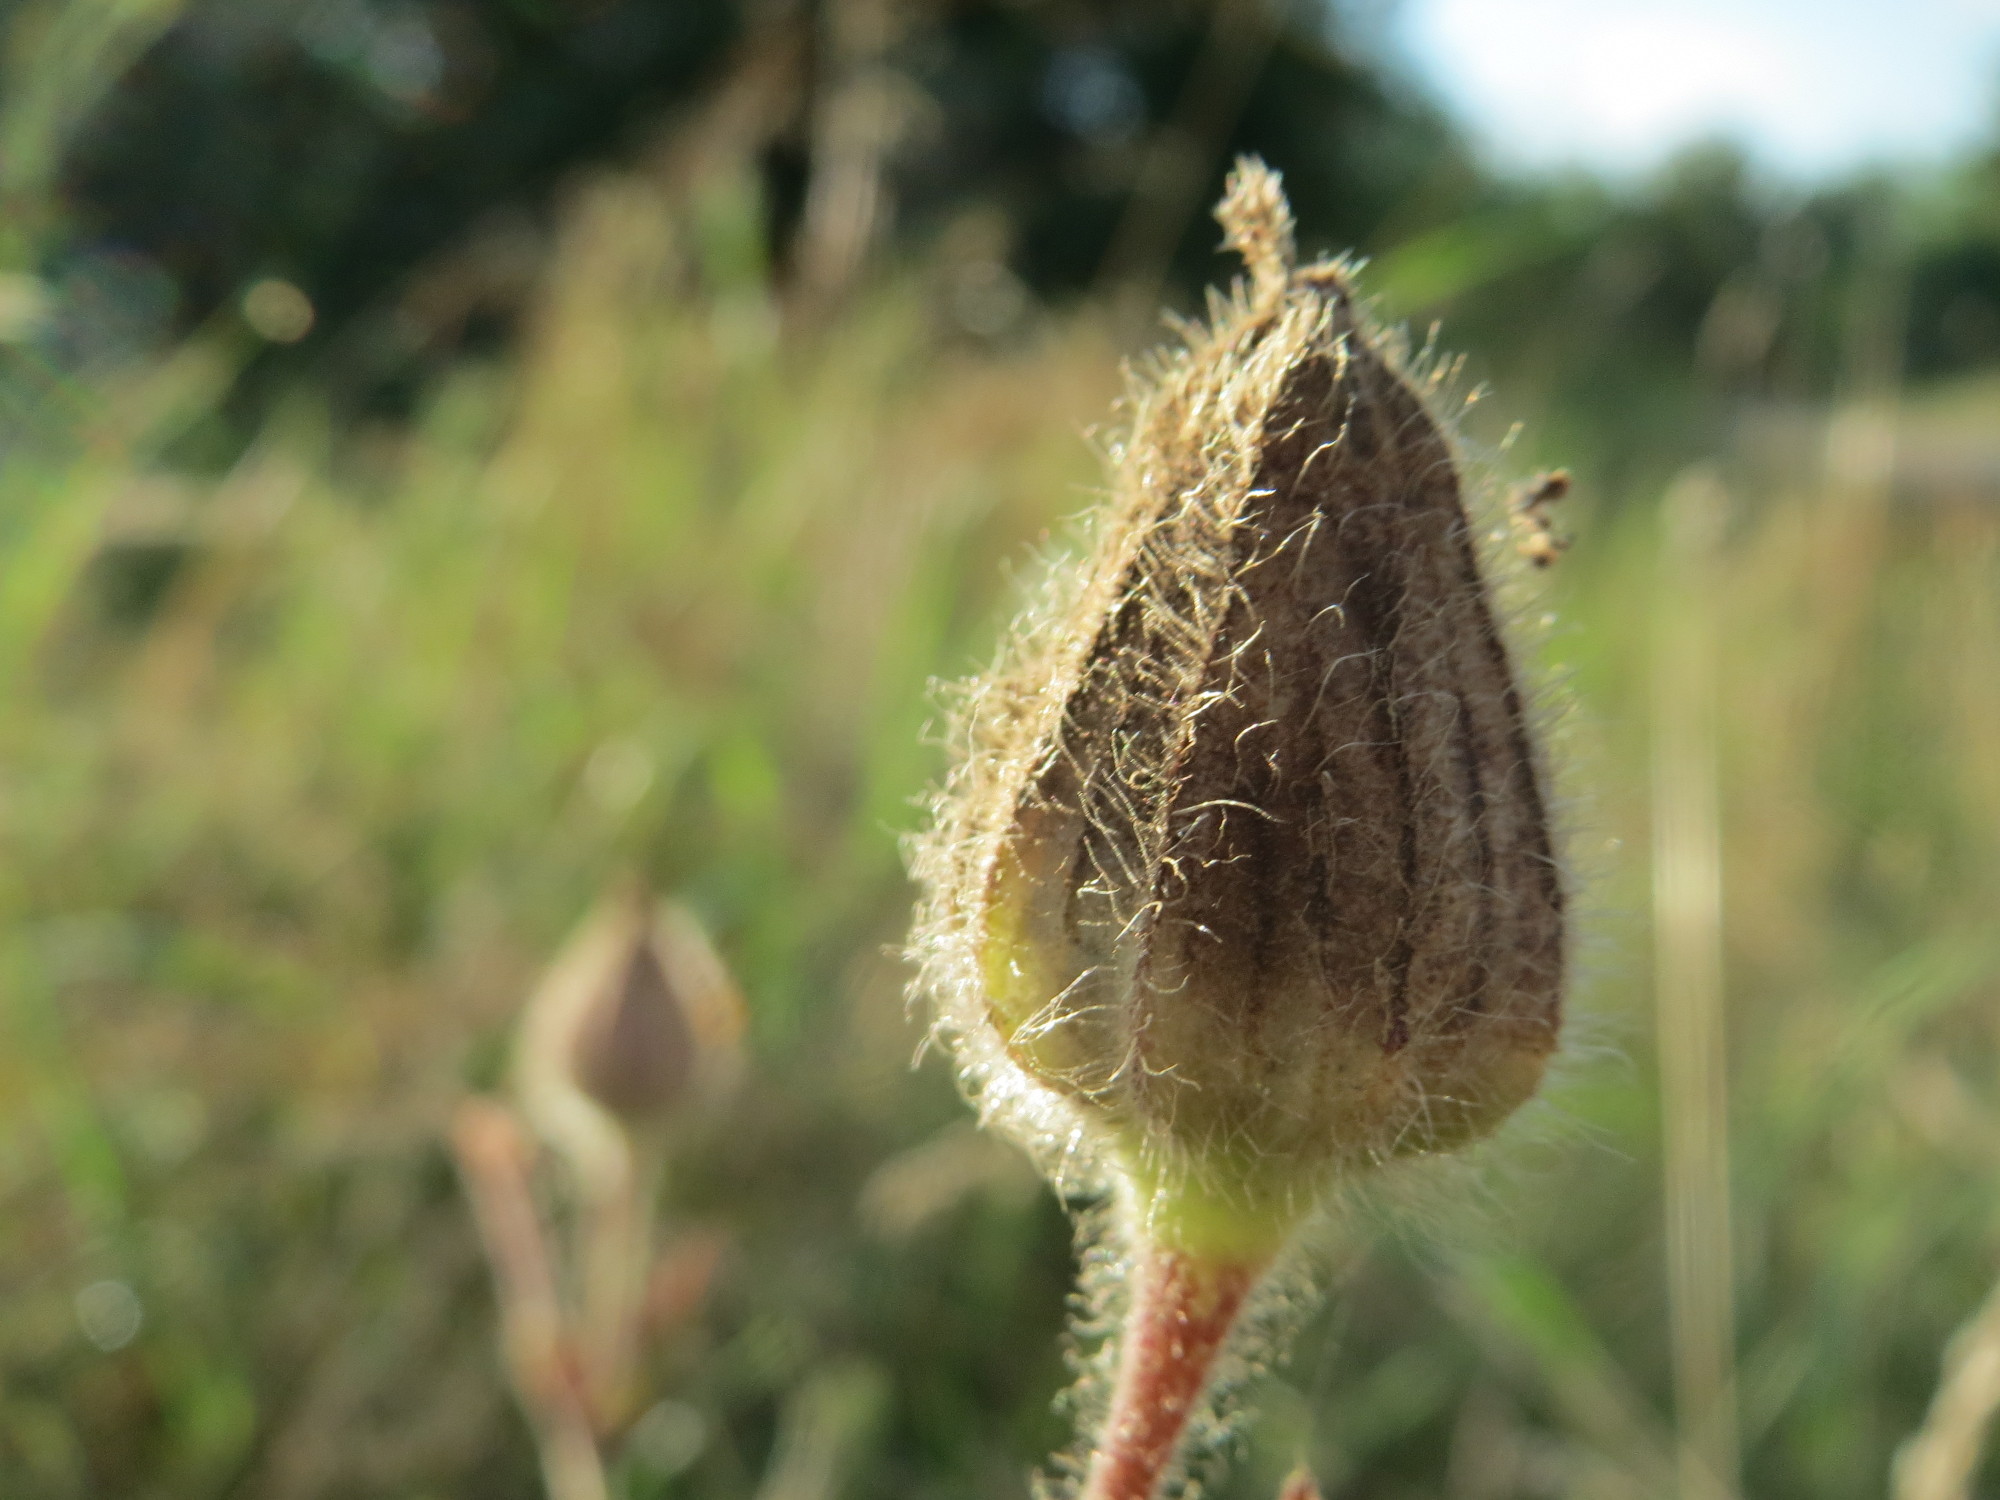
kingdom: Plantae
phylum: Tracheophyta
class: Magnoliopsida
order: Caryophyllales
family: Caryophyllaceae
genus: Silene
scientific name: Silene latifolia
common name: White campion
